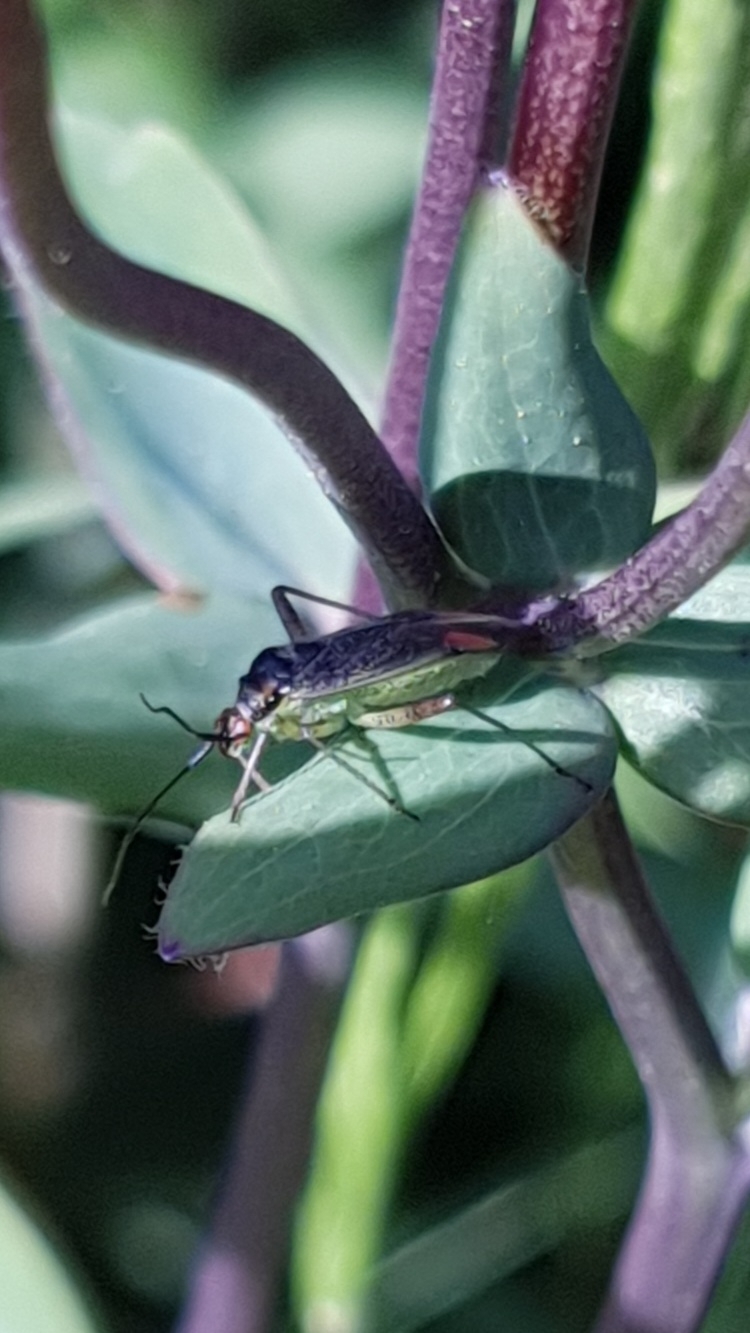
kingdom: Animalia
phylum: Arthropoda
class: Insecta
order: Hemiptera
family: Miridae
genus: Closterotomus
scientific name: Closterotomus trivialis
